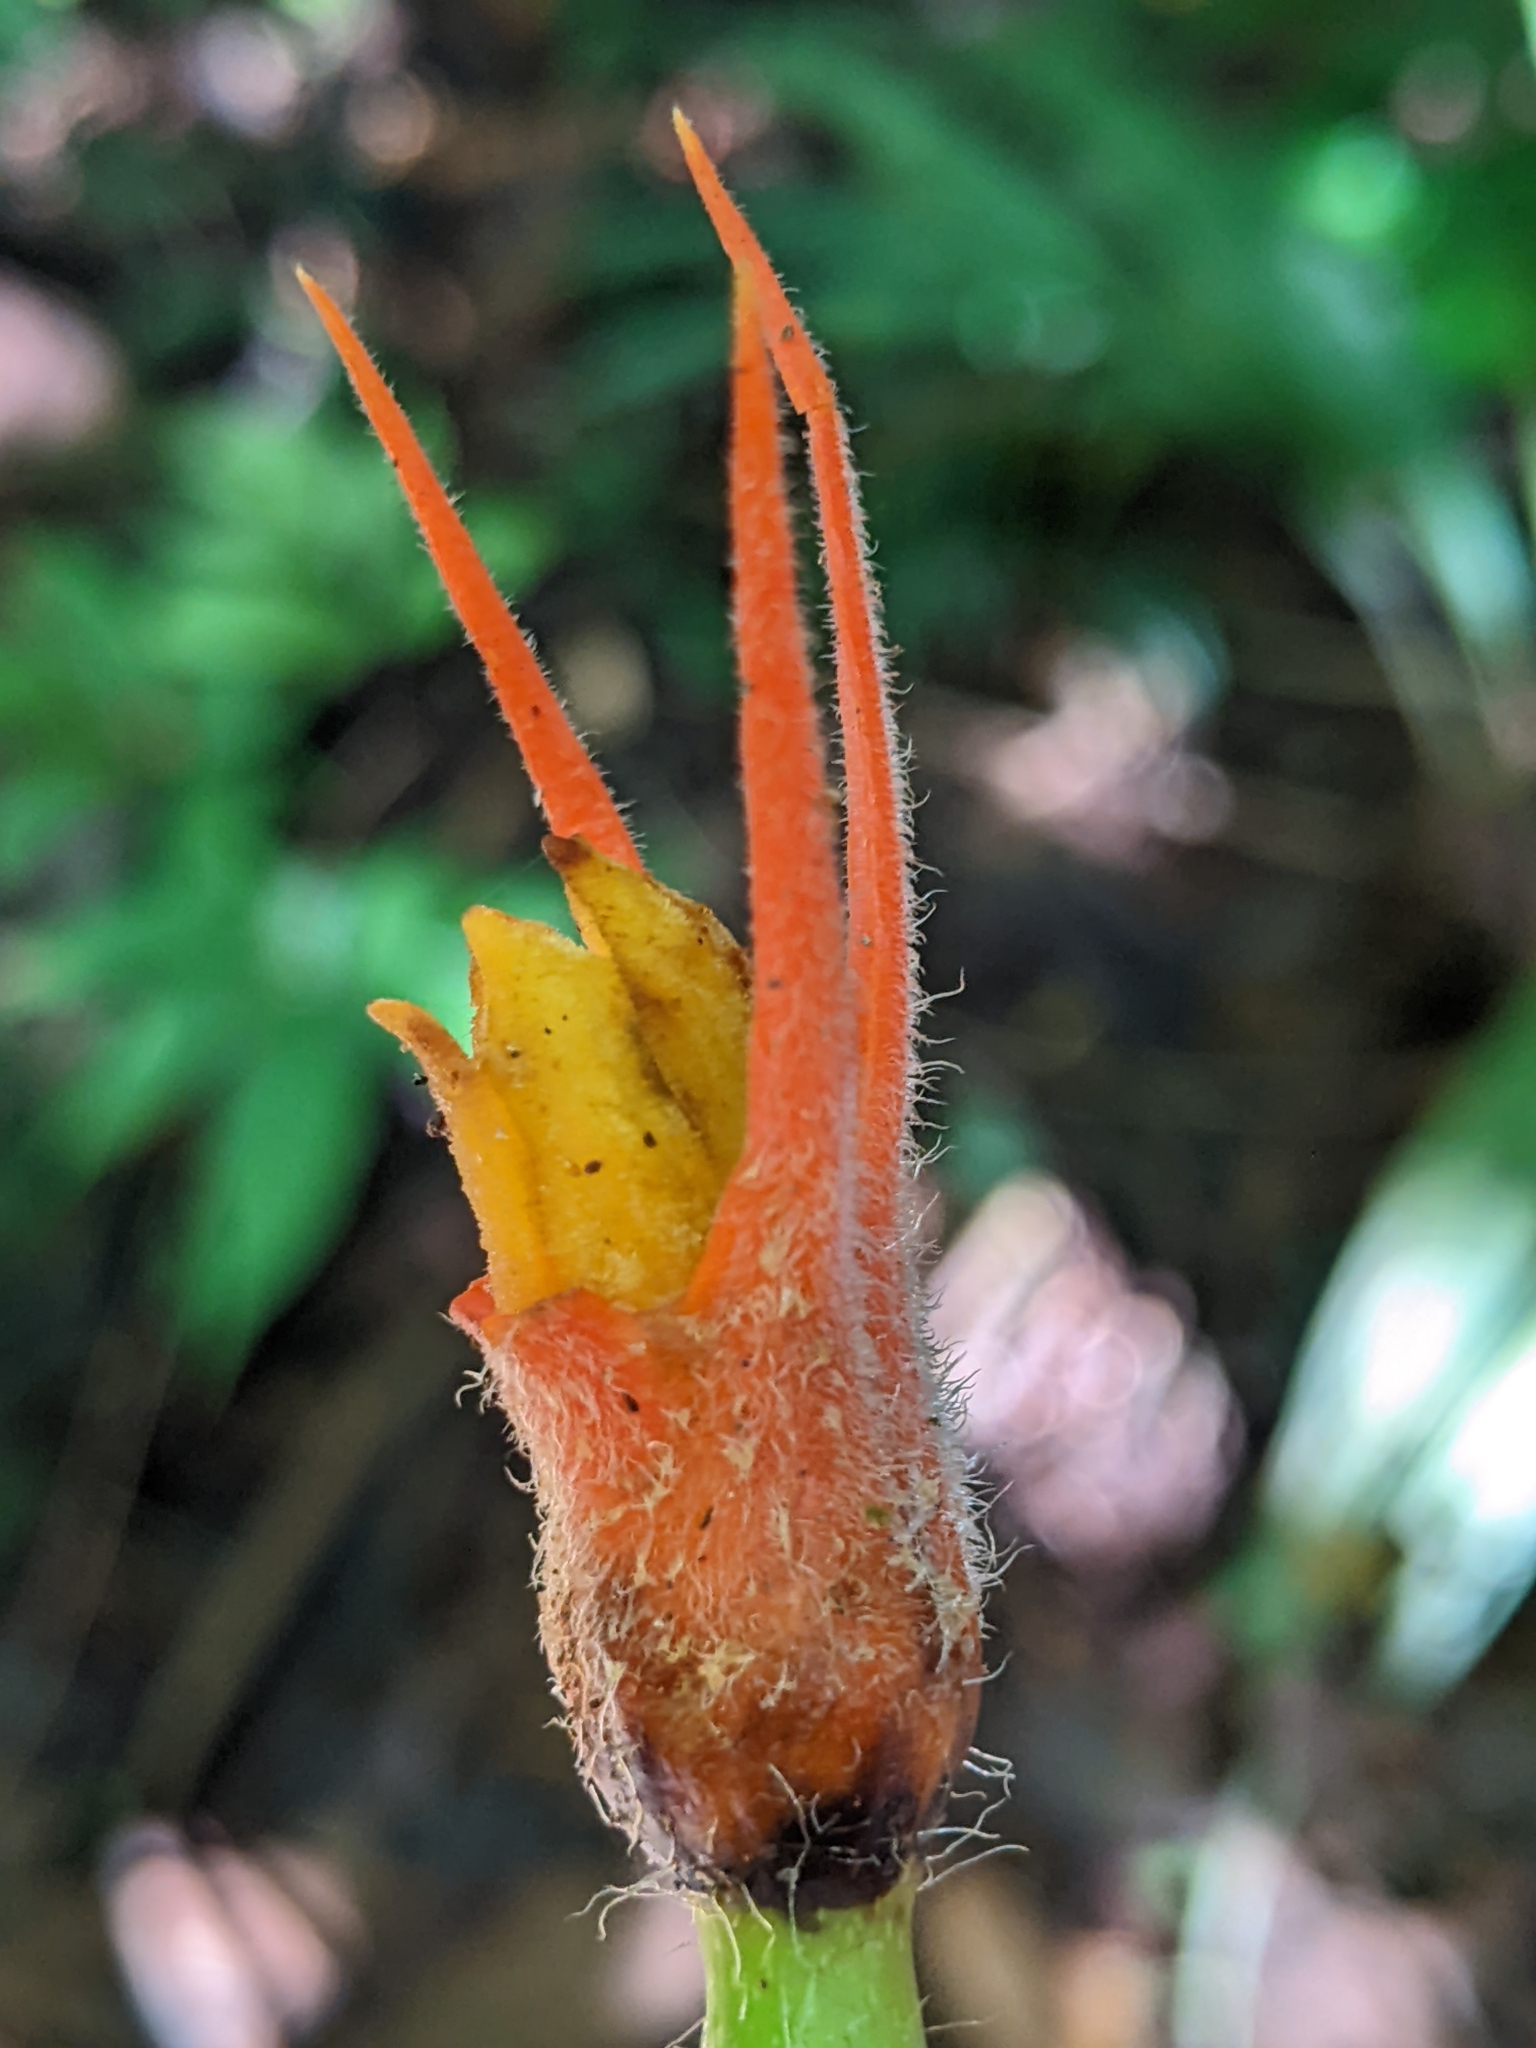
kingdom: Plantae
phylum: Tracheophyta
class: Magnoliopsida
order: Cucurbitales
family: Cucurbitaceae
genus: Gurania
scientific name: Gurania makoyana
